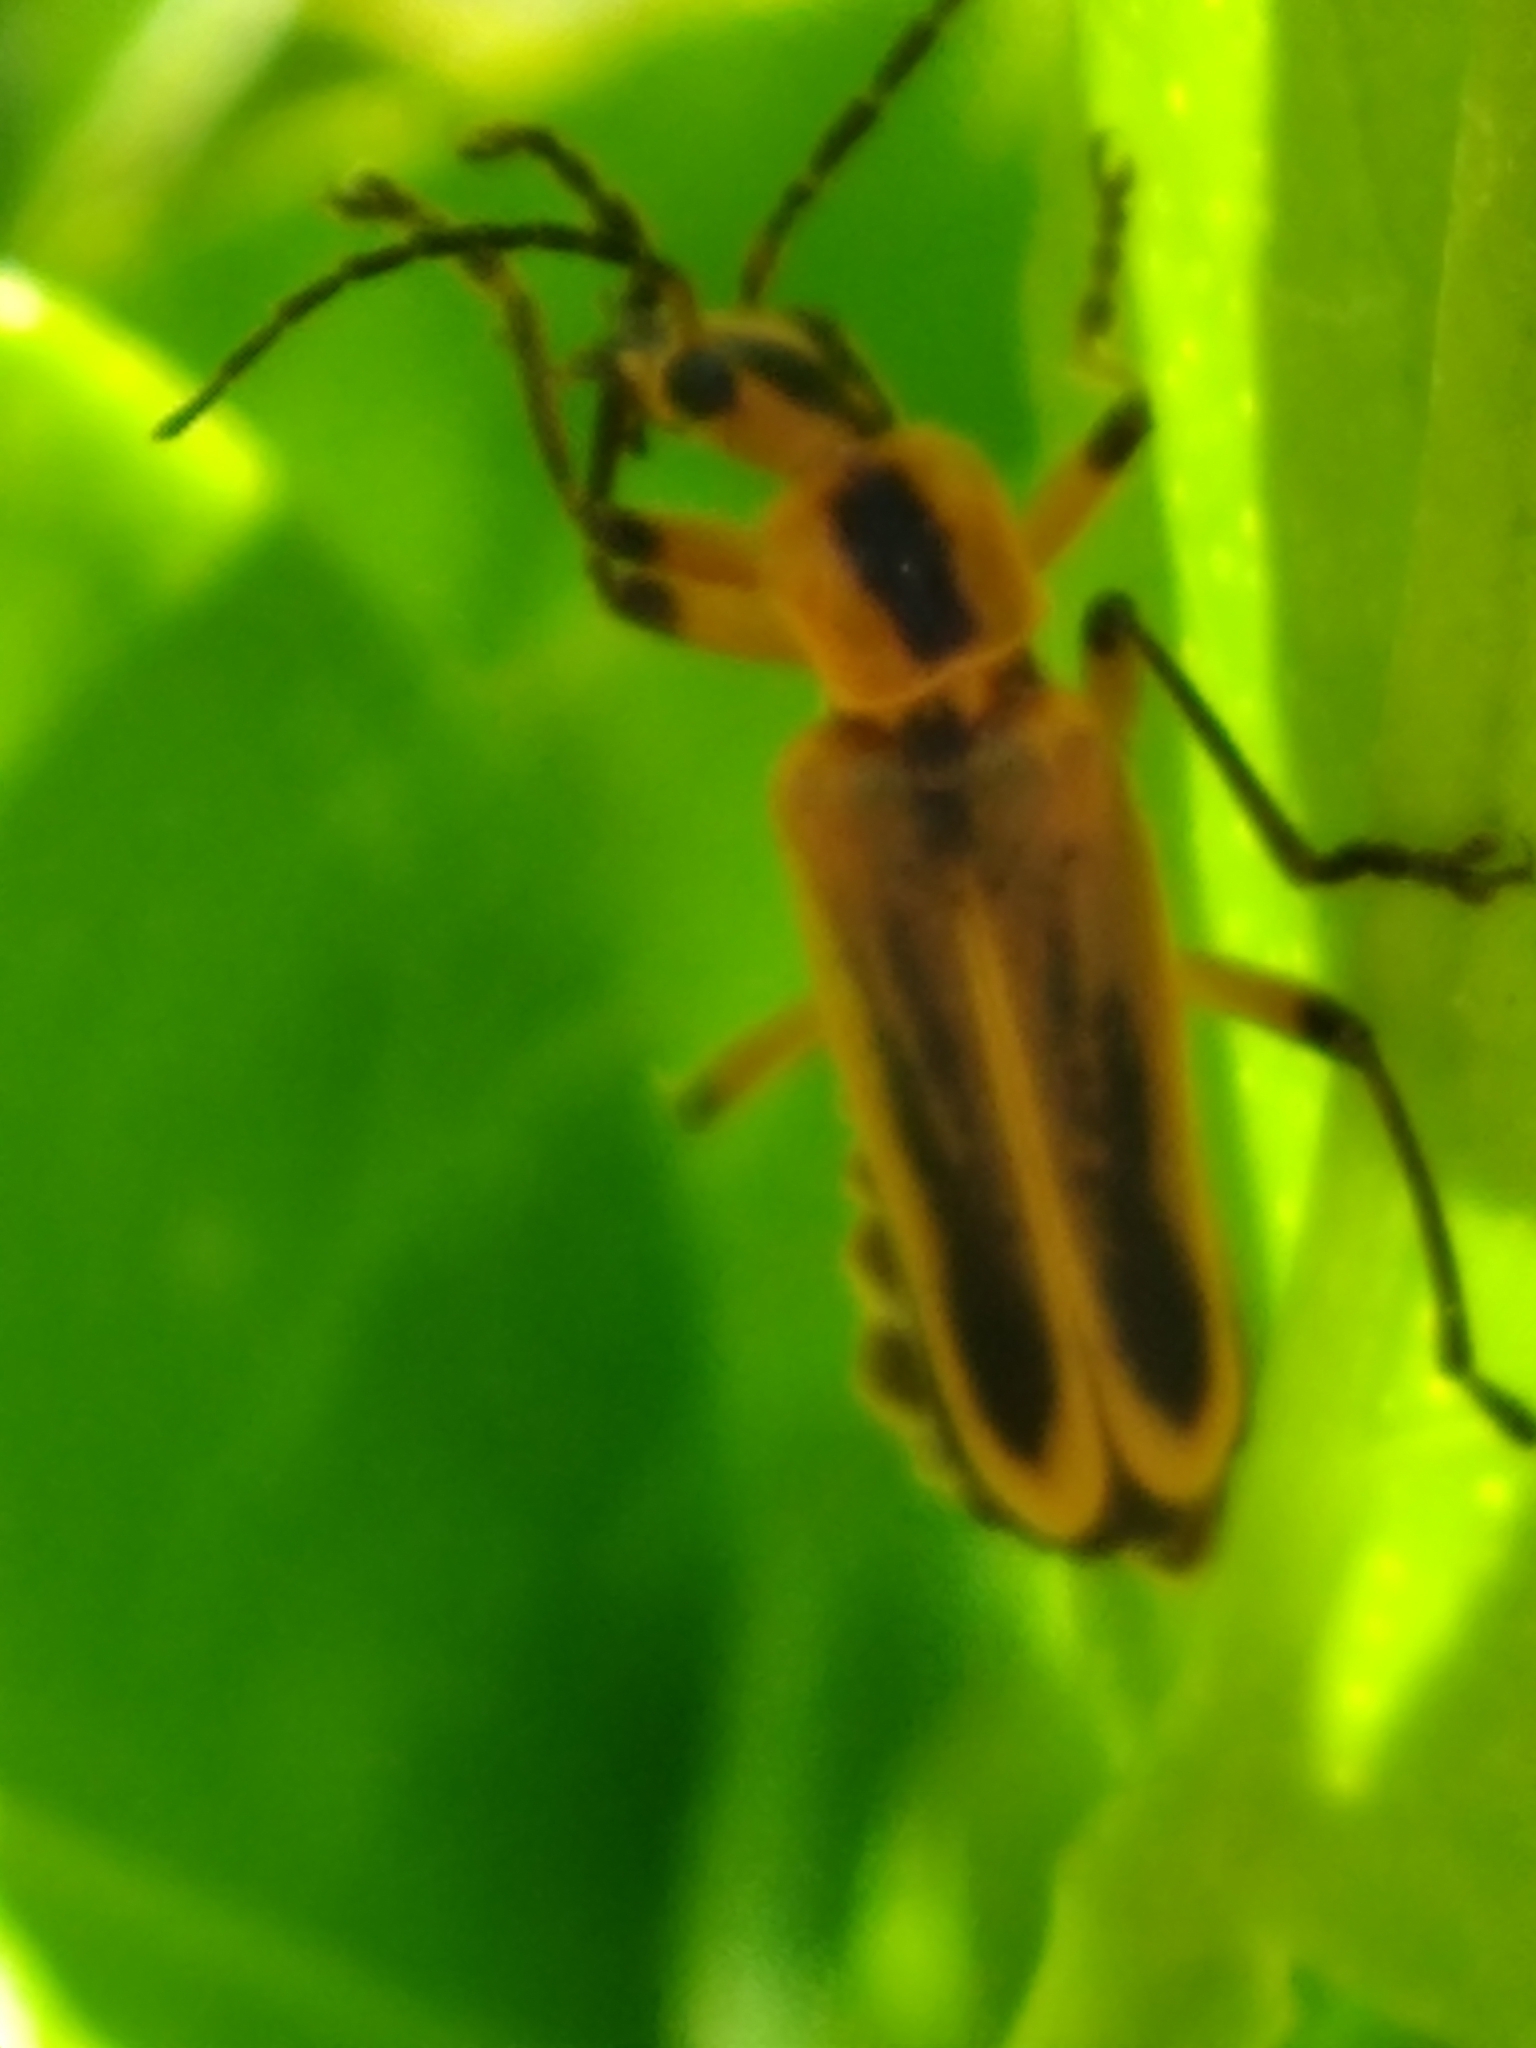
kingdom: Animalia
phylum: Arthropoda
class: Insecta
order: Coleoptera
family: Cantharidae
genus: Chauliognathus
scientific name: Chauliognathus marginatus
